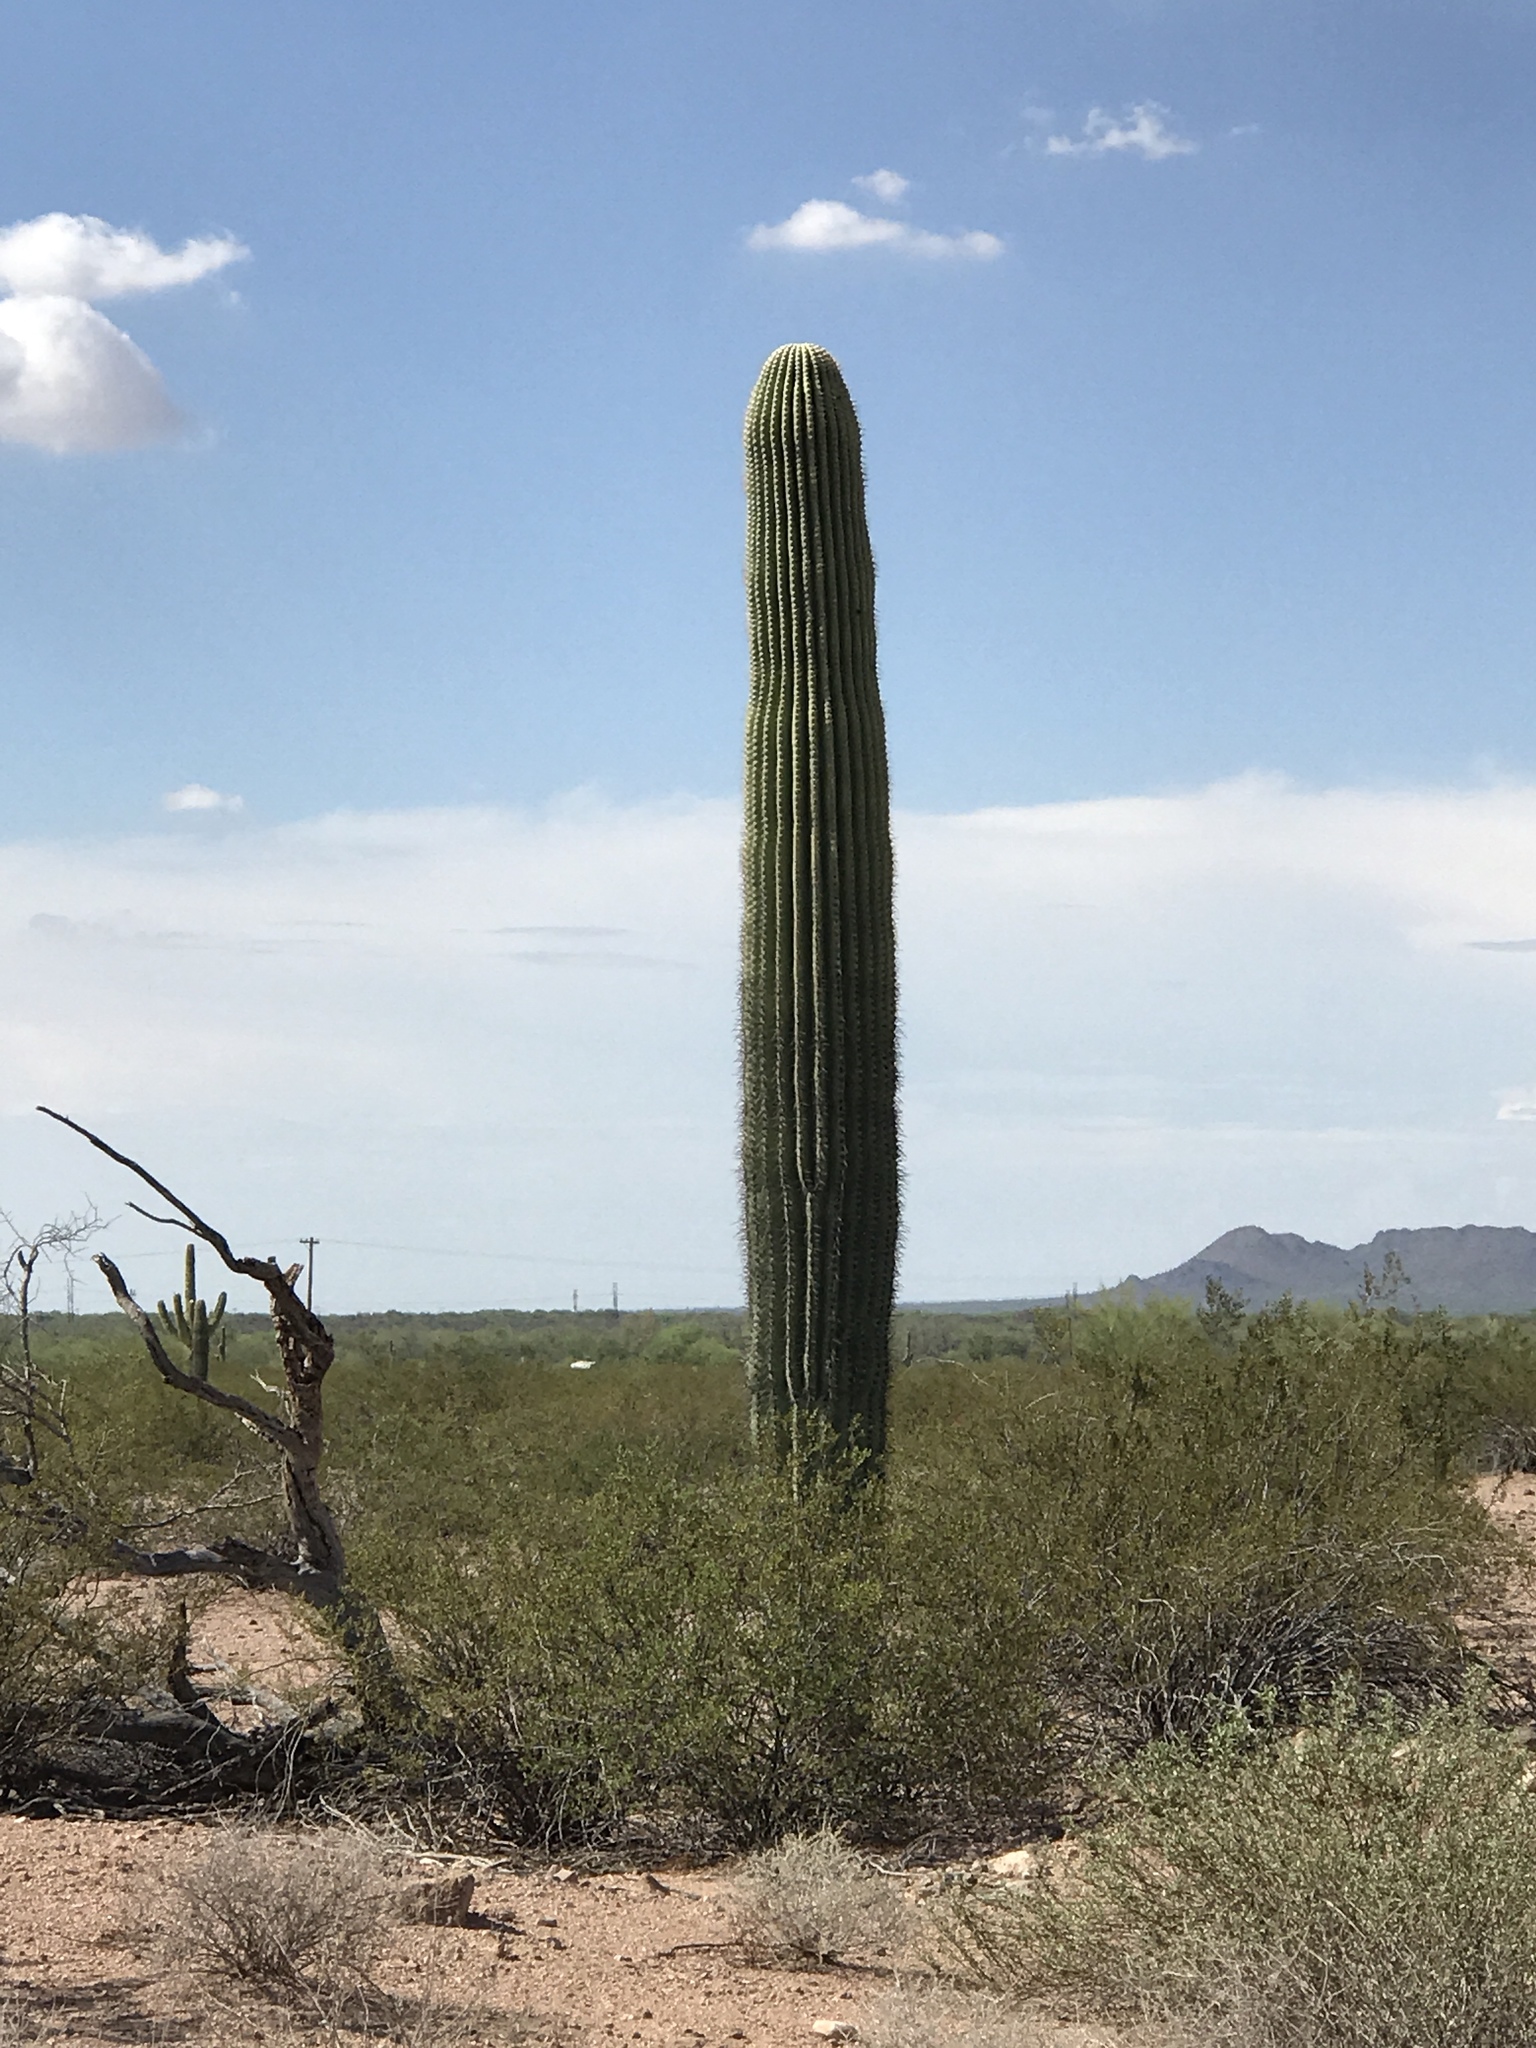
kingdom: Plantae
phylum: Tracheophyta
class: Magnoliopsida
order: Caryophyllales
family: Cactaceae
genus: Carnegiea
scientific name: Carnegiea gigantea
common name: Saguaro
